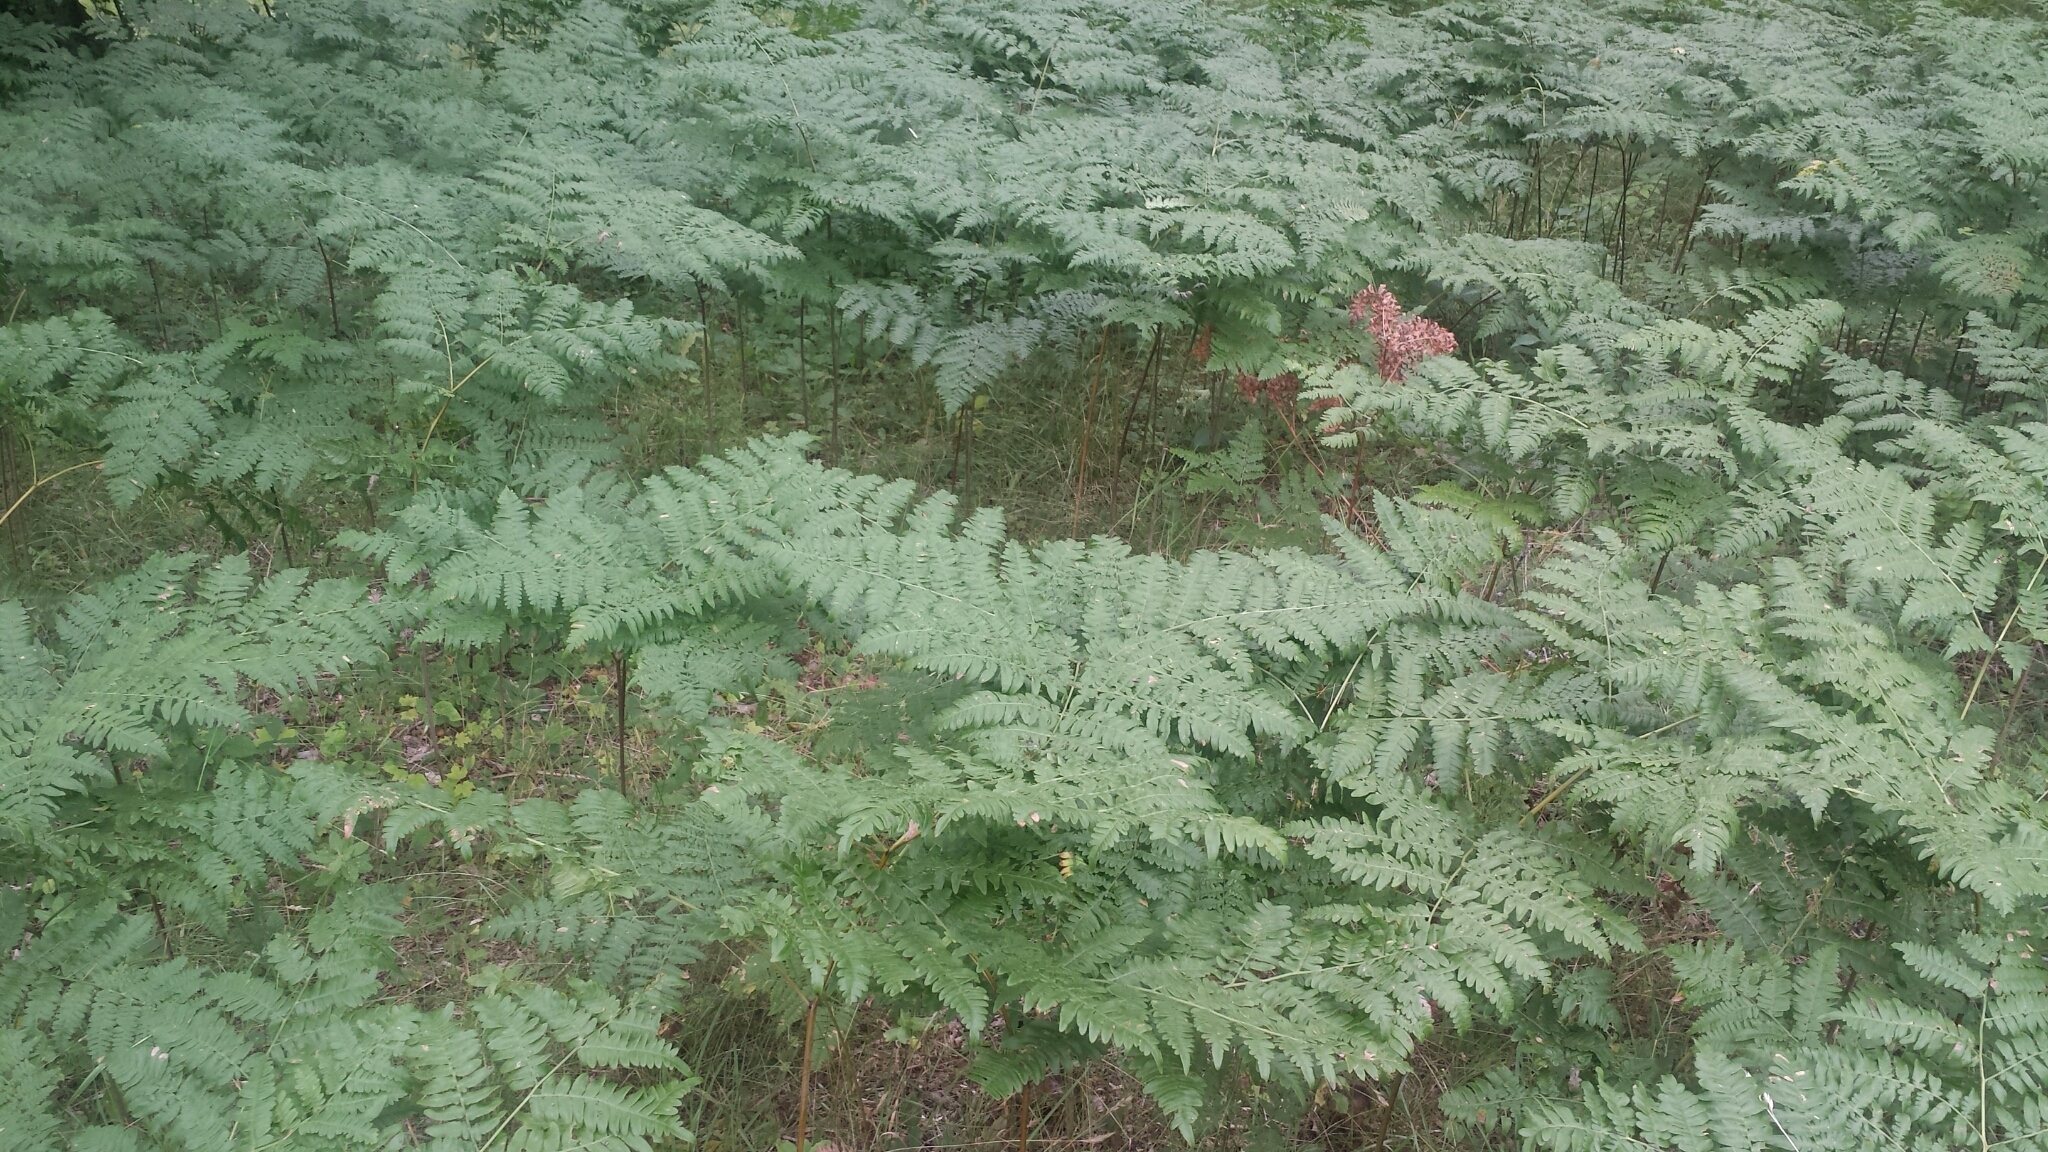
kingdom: Plantae
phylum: Tracheophyta
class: Polypodiopsida
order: Polypodiales
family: Dennstaedtiaceae
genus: Pteridium
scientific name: Pteridium aquilinum
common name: Bracken
